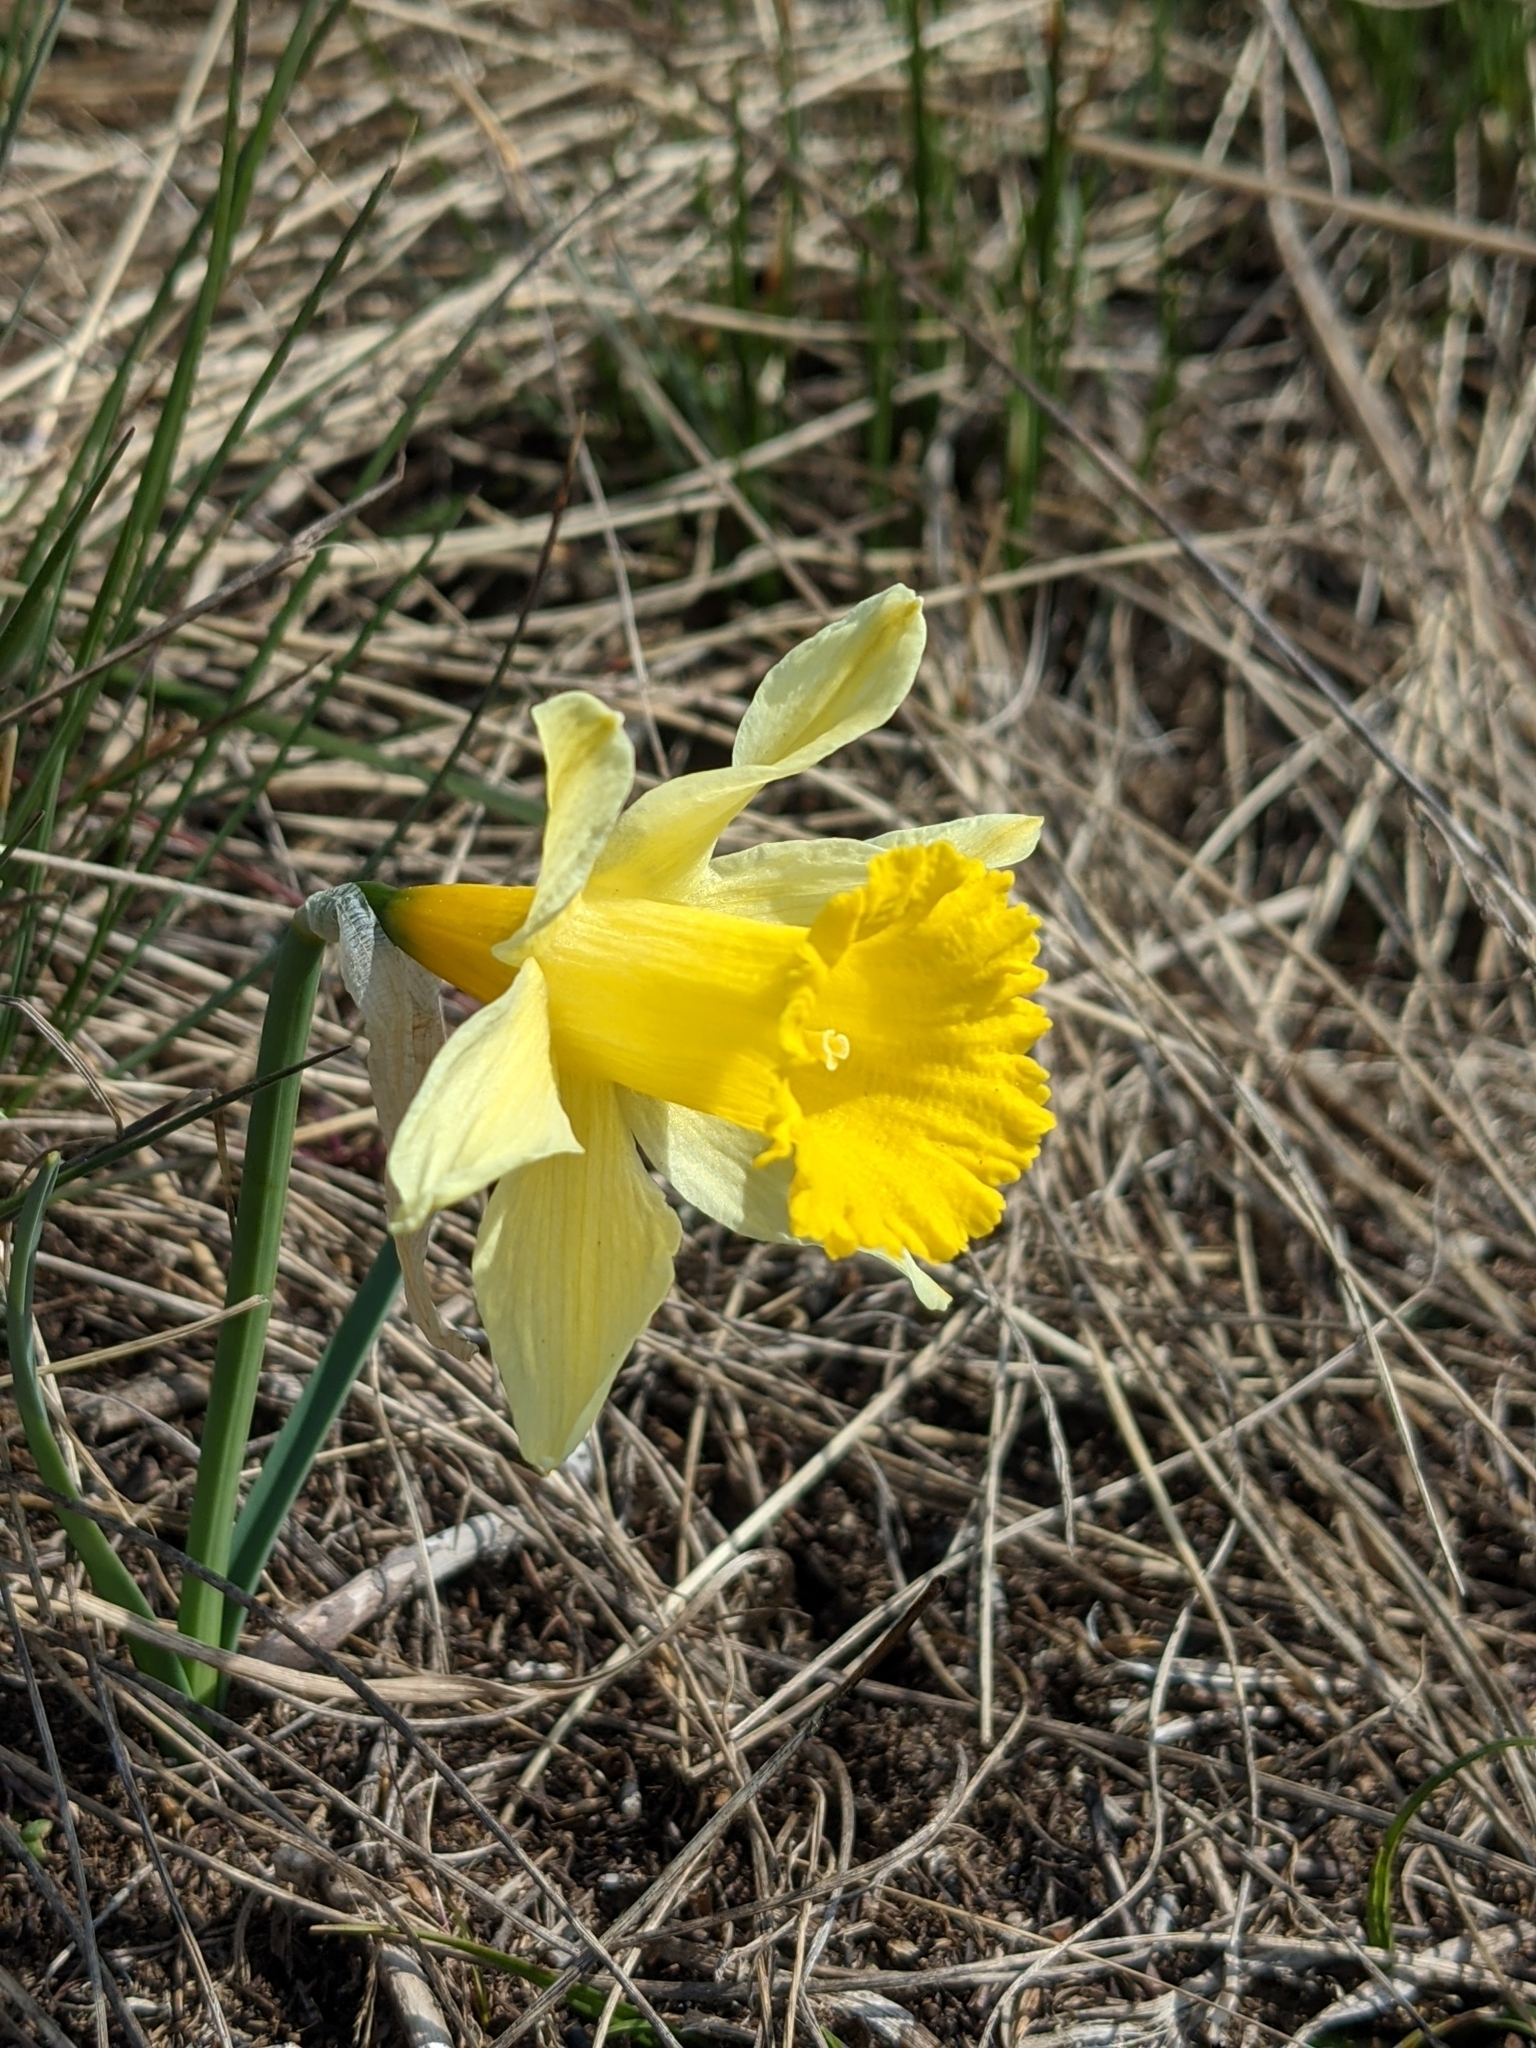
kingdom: Plantae
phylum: Tracheophyta
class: Liliopsida
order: Asparagales
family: Amaryllidaceae
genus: Narcissus
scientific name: Narcissus pseudonarcissus
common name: Daffodil
